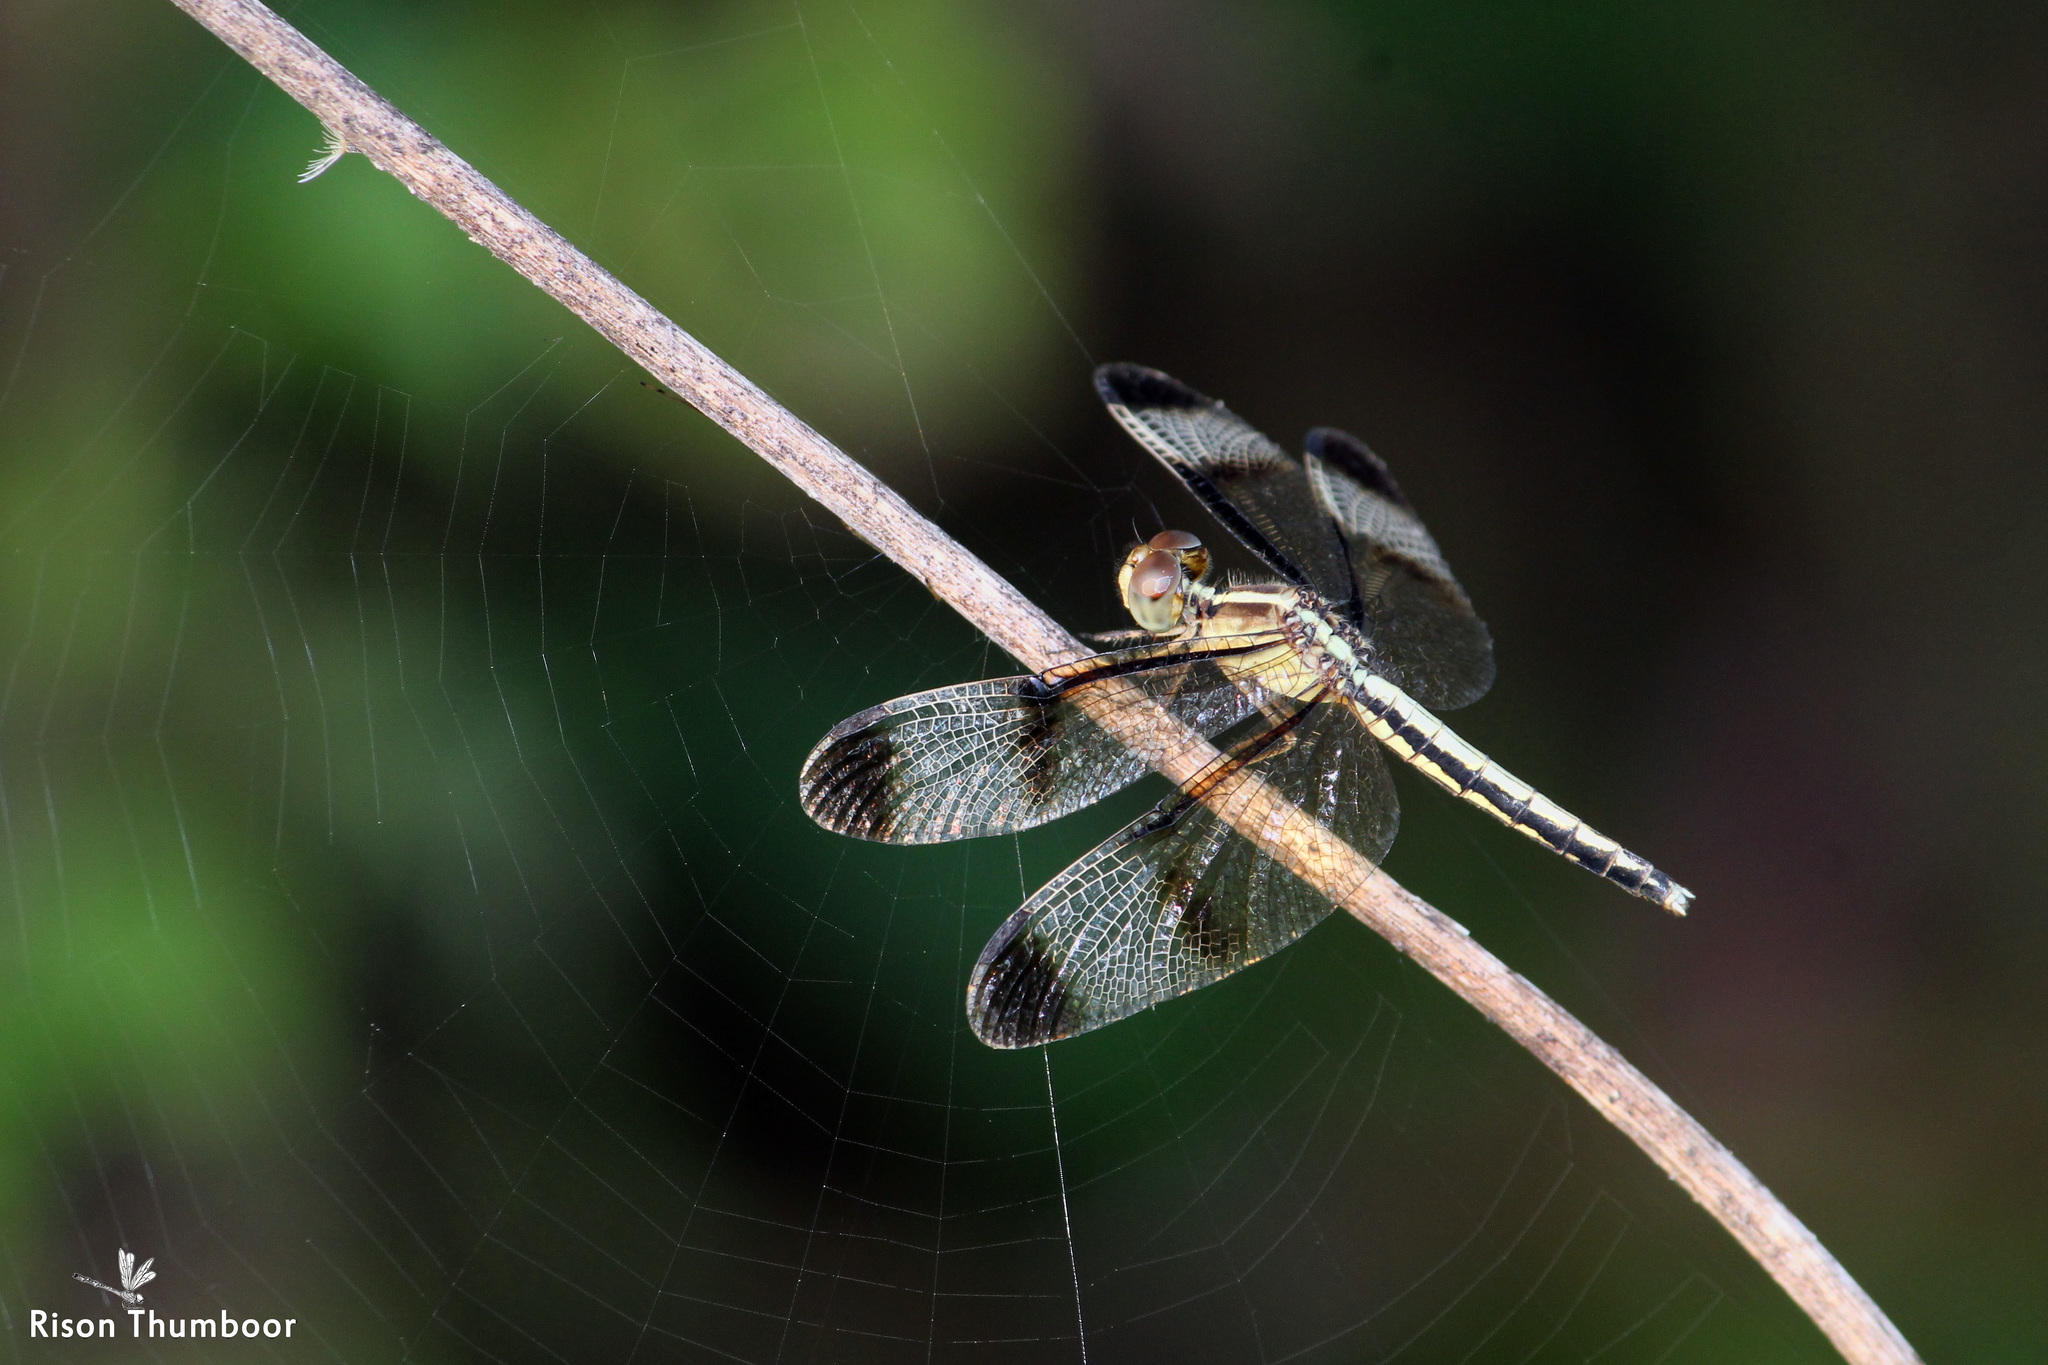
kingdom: Animalia
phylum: Arthropoda
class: Insecta
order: Odonata
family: Libellulidae
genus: Neurothemis
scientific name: Neurothemis tullia
